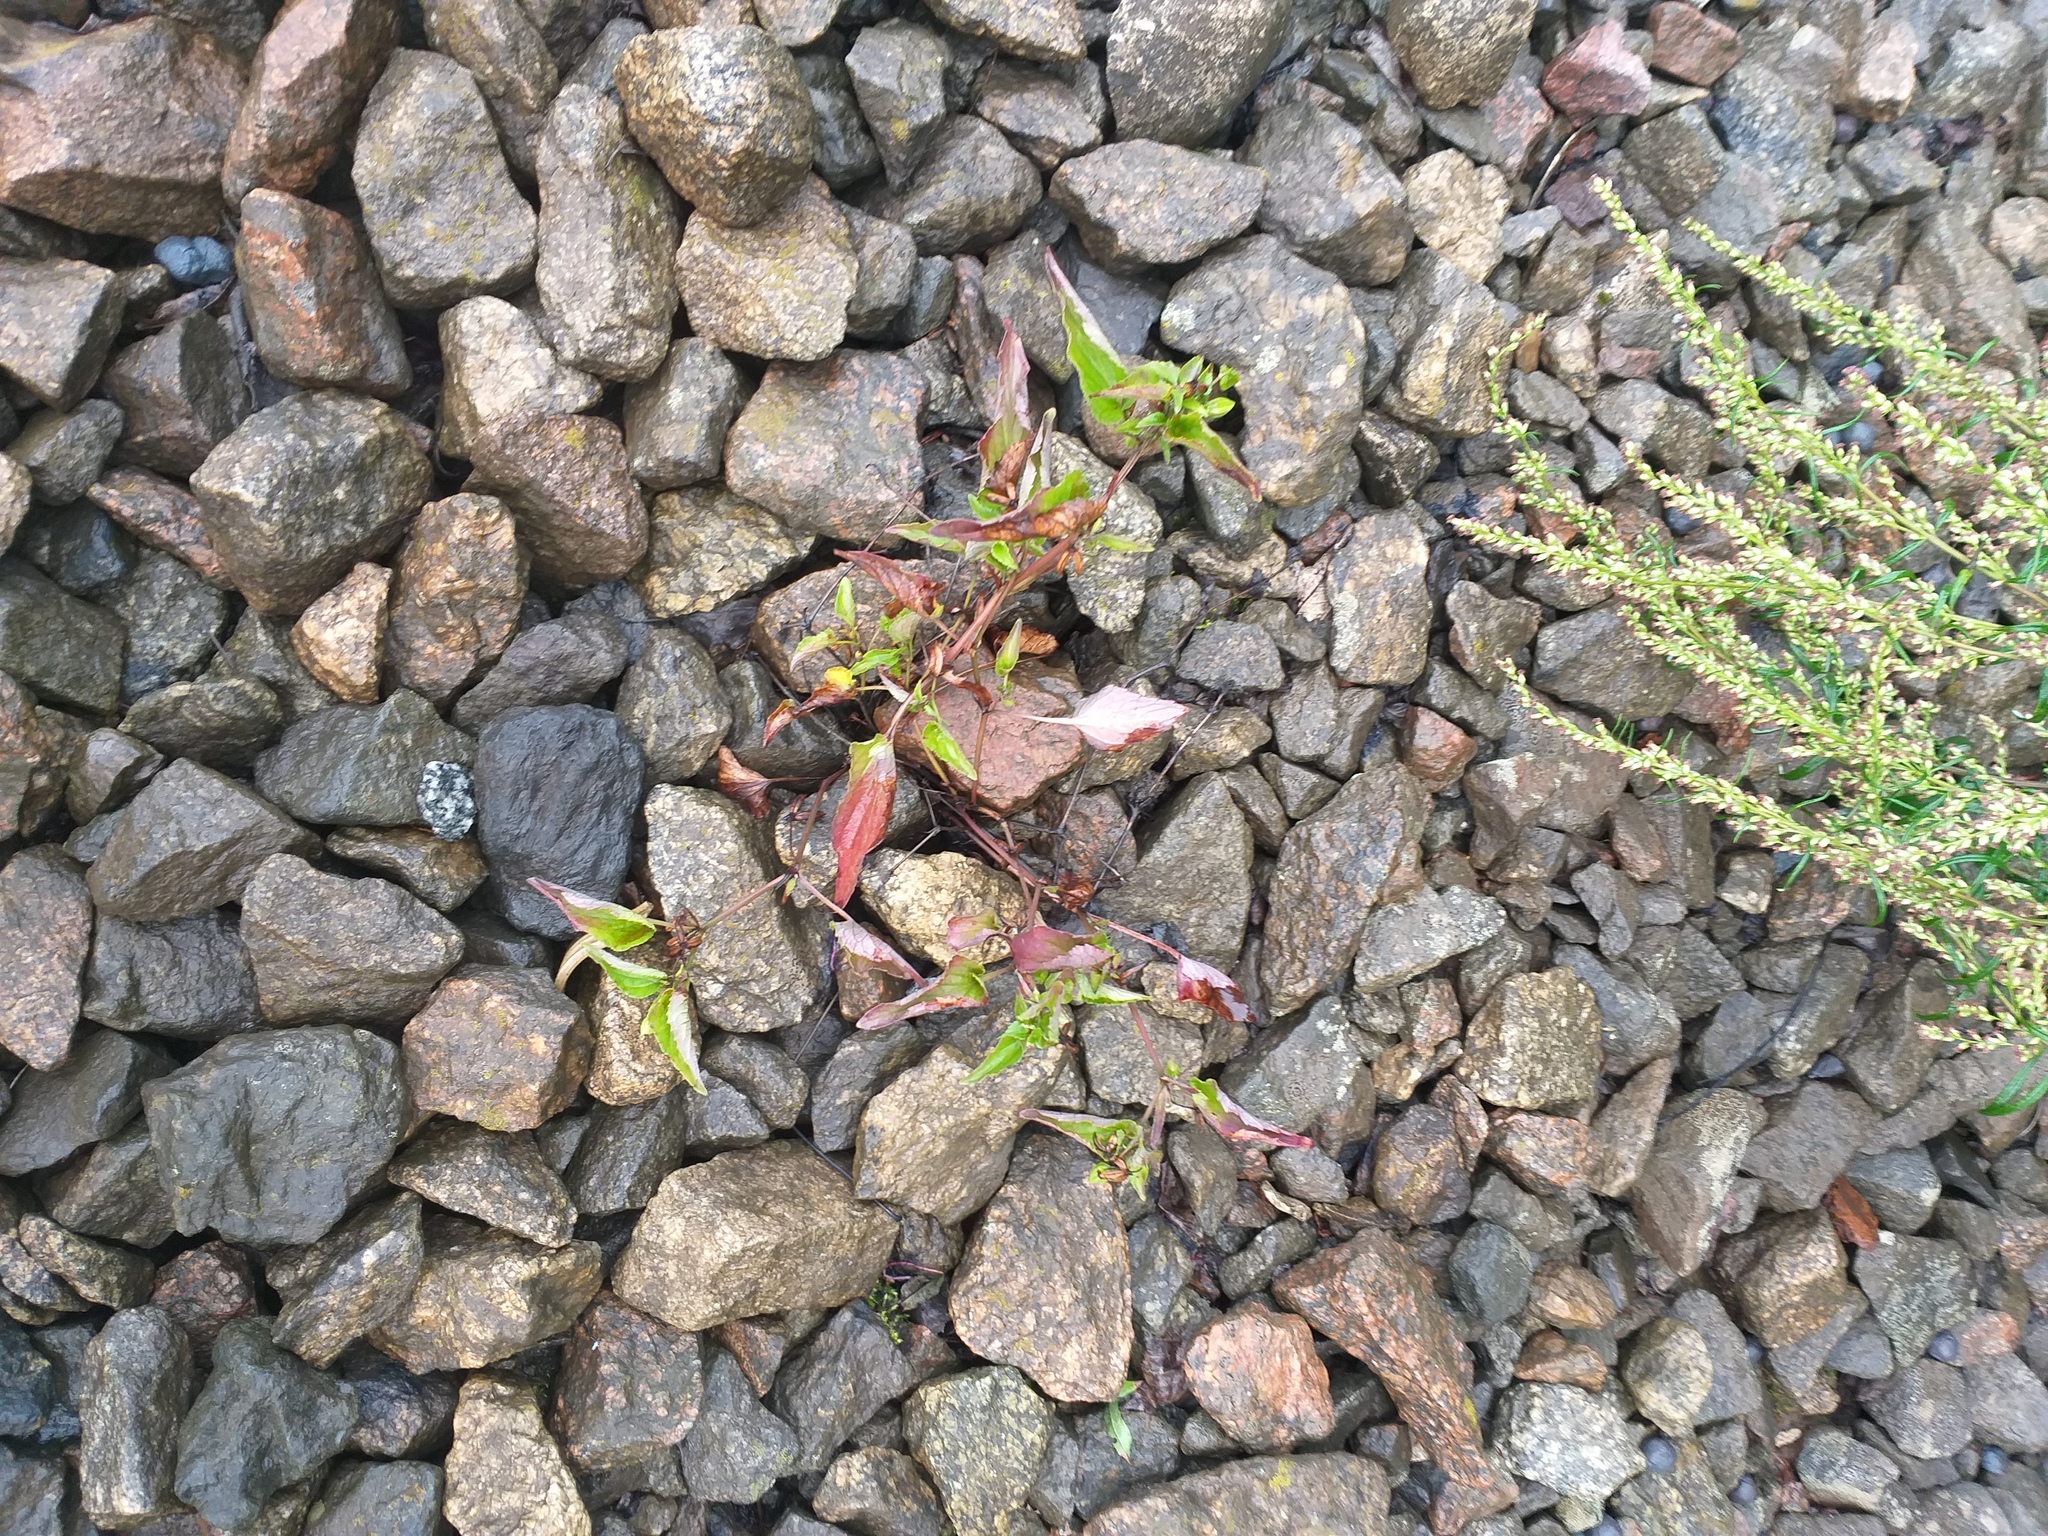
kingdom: Plantae
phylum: Tracheophyta
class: Magnoliopsida
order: Malpighiales
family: Violaceae
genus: Viola
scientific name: Viola canina
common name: Heath dog-violet
